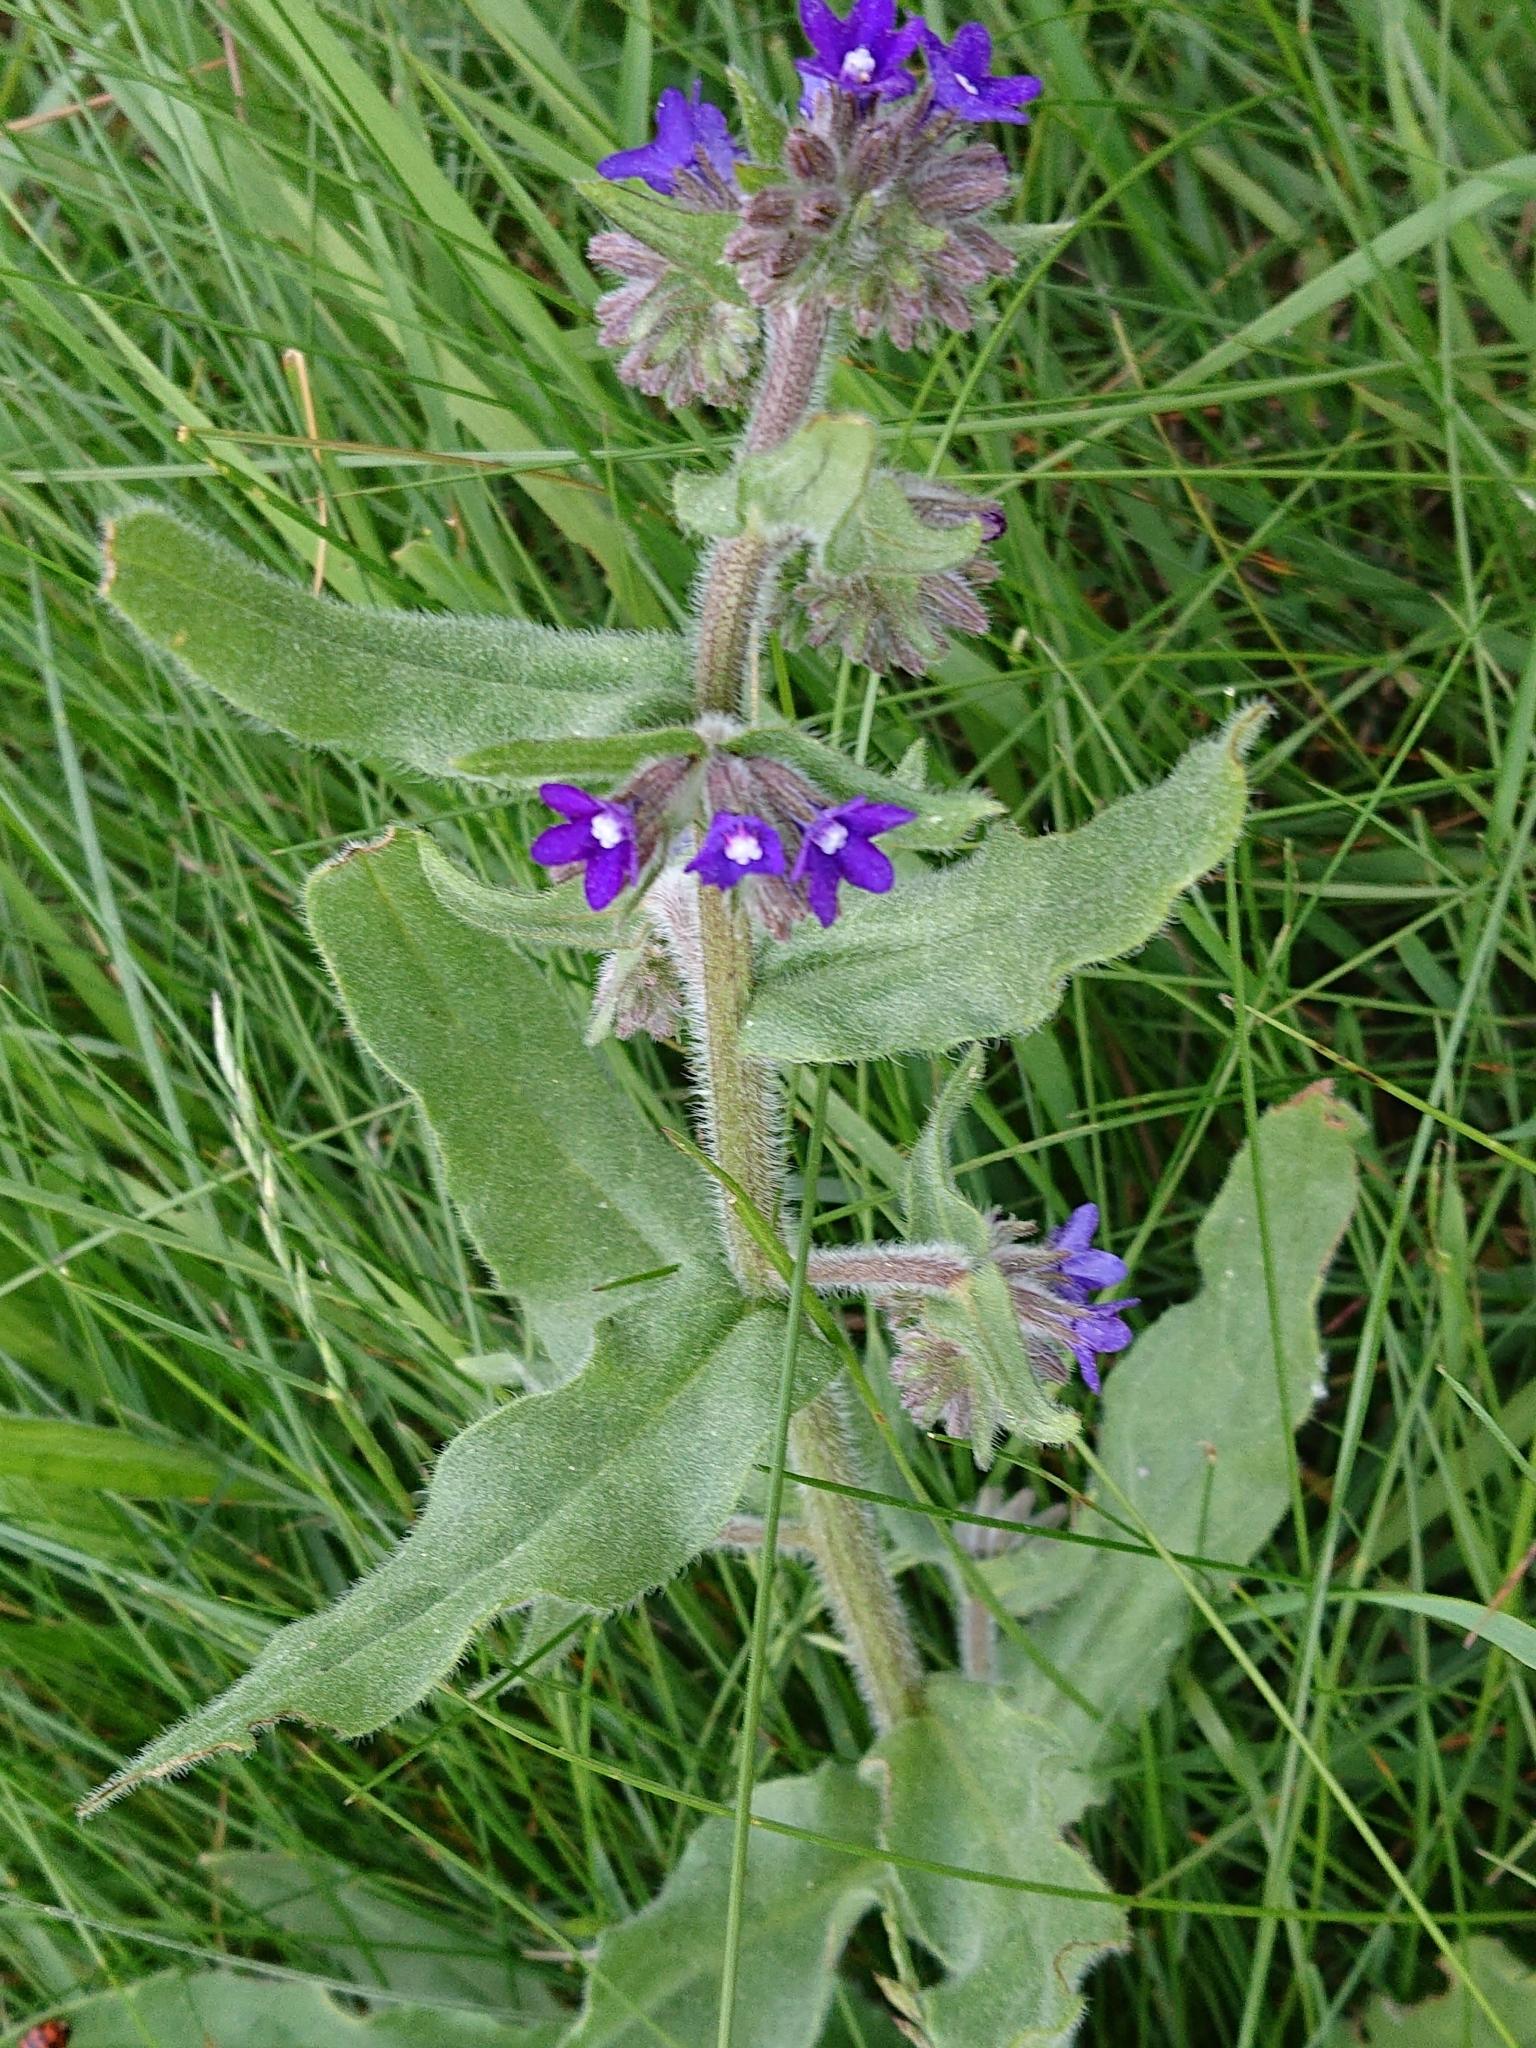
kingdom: Plantae
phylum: Tracheophyta
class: Magnoliopsida
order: Boraginales
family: Boraginaceae
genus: Anchusa
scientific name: Anchusa officinalis
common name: Alkanet
